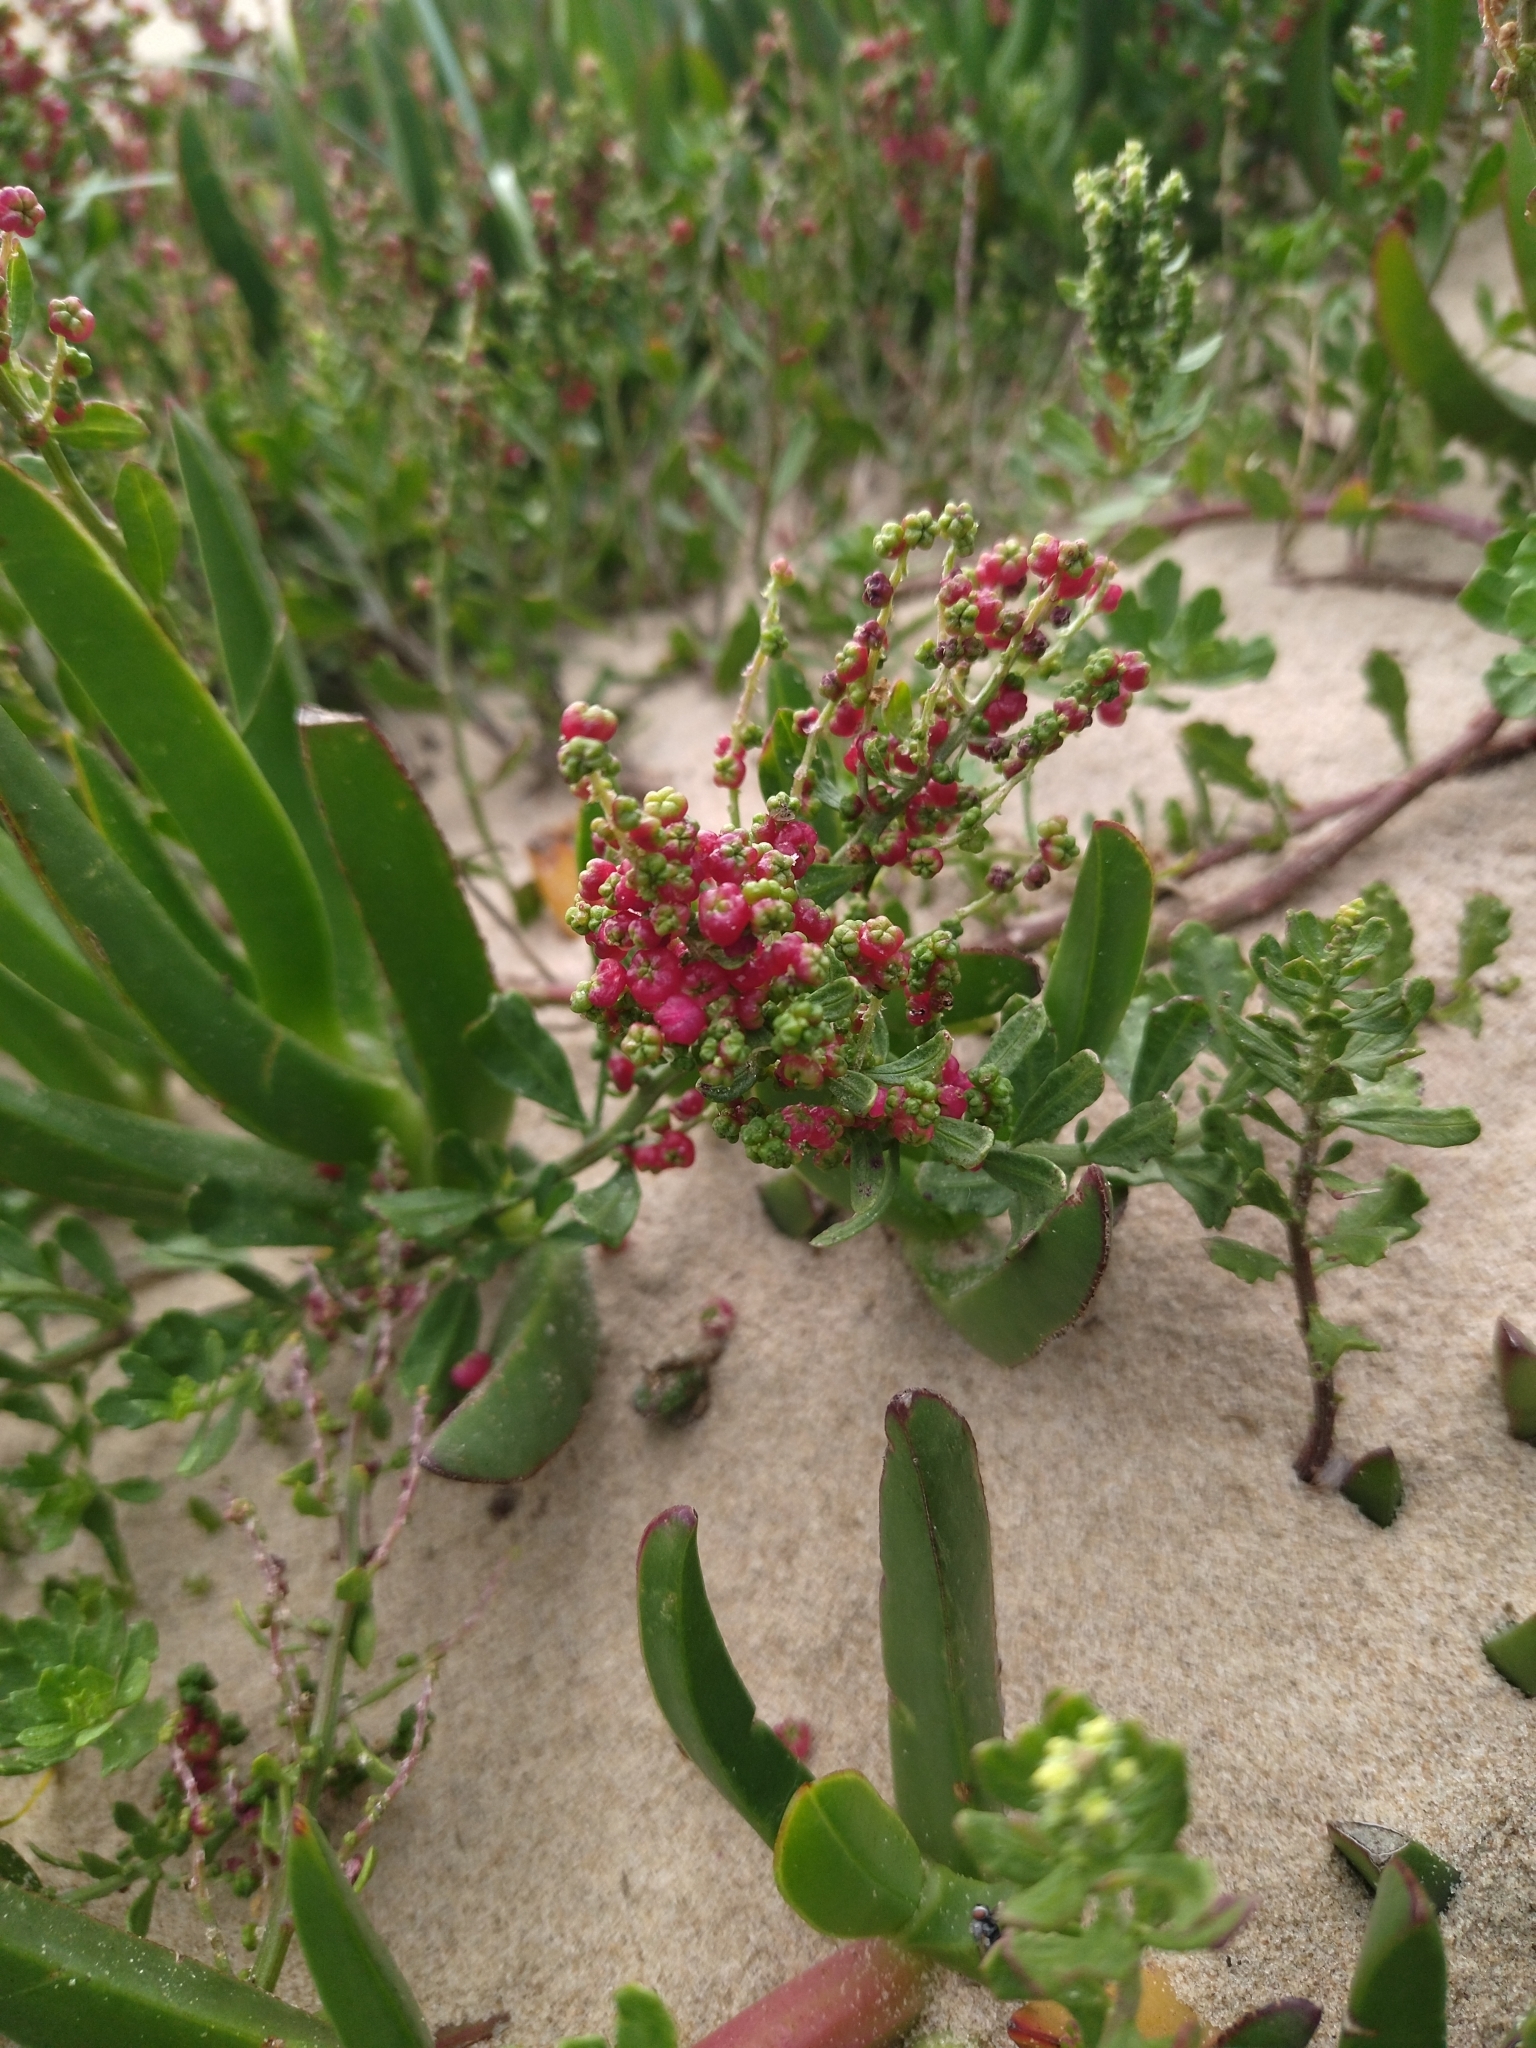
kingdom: Plantae
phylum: Tracheophyta
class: Magnoliopsida
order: Caryophyllales
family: Amaranthaceae
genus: Dysphania
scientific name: Dysphania retusa
